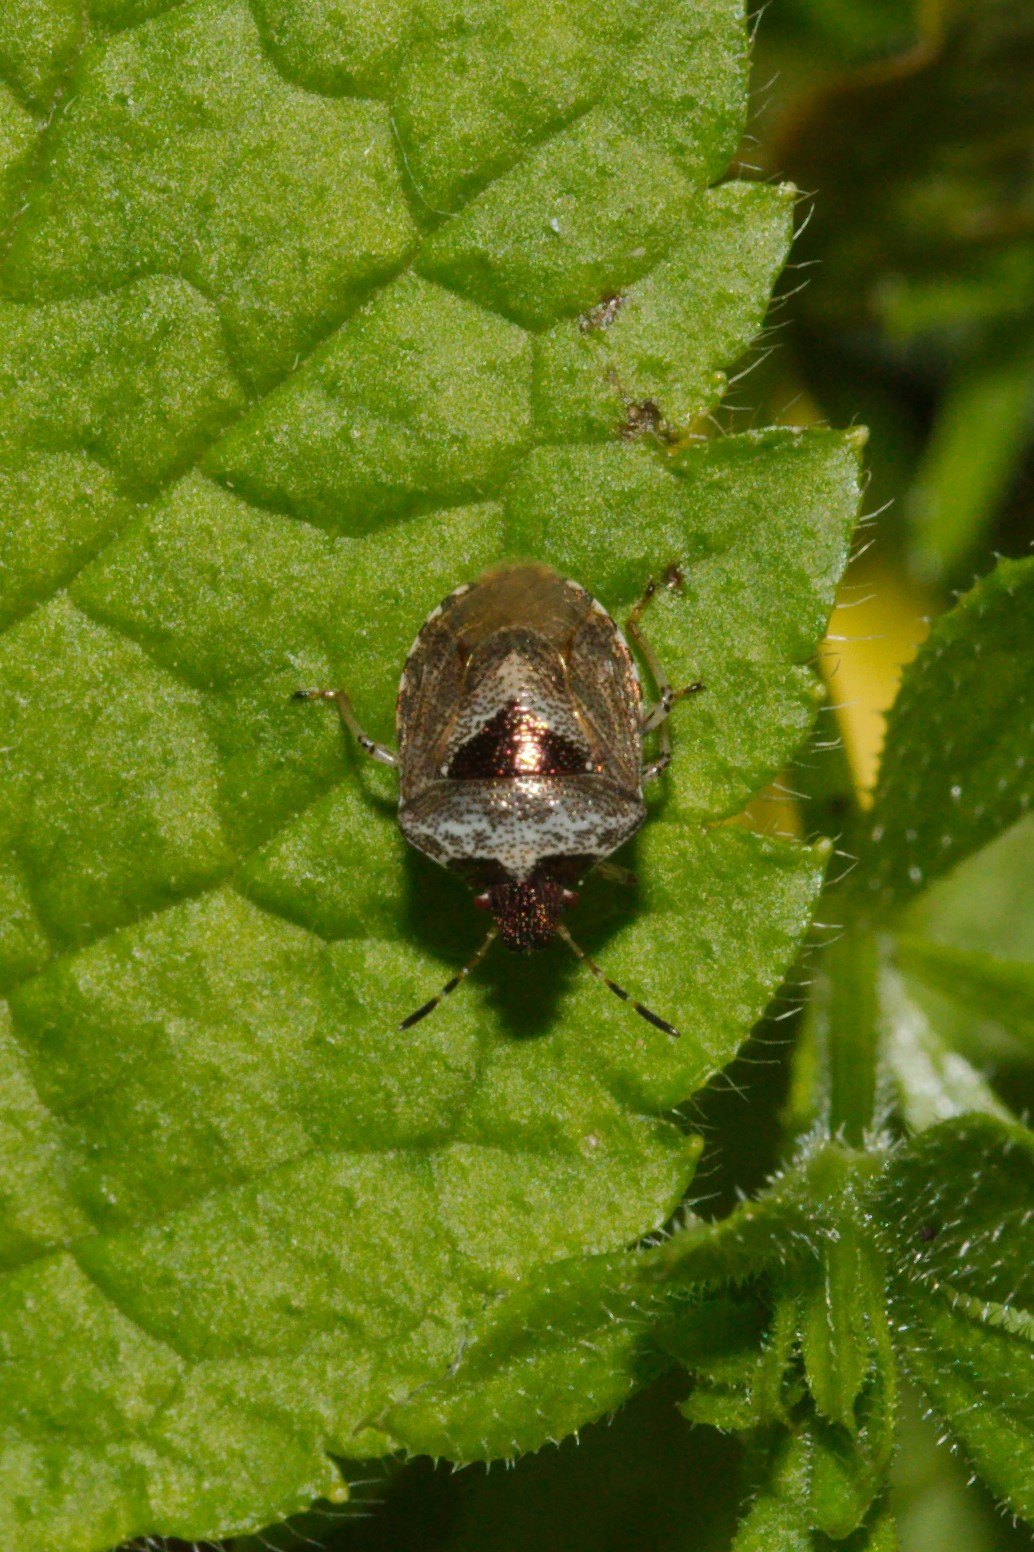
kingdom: Animalia
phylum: Arthropoda
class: Insecta
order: Hemiptera
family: Pentatomidae
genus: Eysarcoris
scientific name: Eysarcoris venustissimus
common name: Woundwort shieldbug
